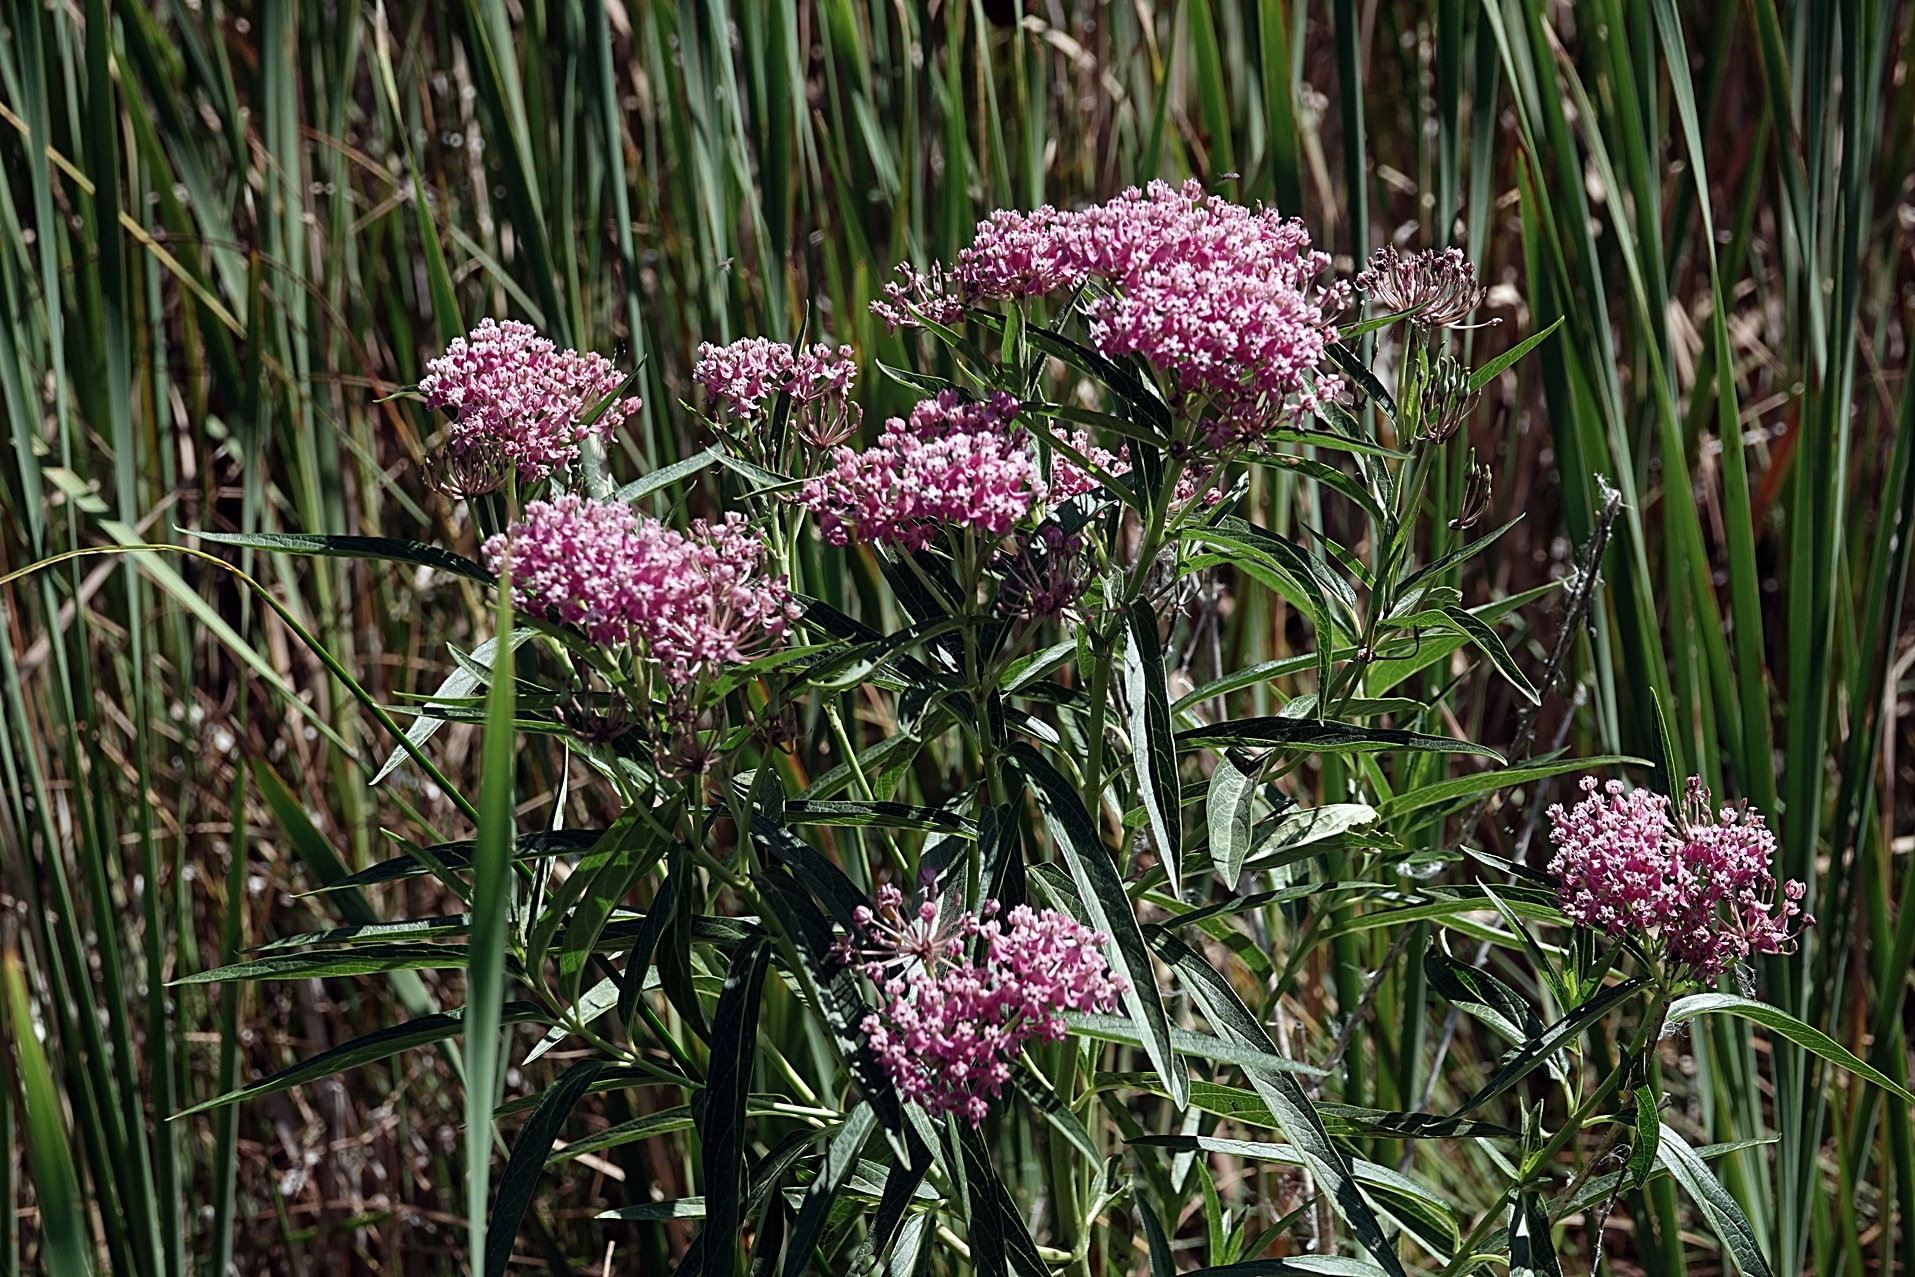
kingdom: Plantae
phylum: Tracheophyta
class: Magnoliopsida
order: Gentianales
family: Apocynaceae
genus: Asclepias
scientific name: Asclepias incarnata
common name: Swamp milkweed
